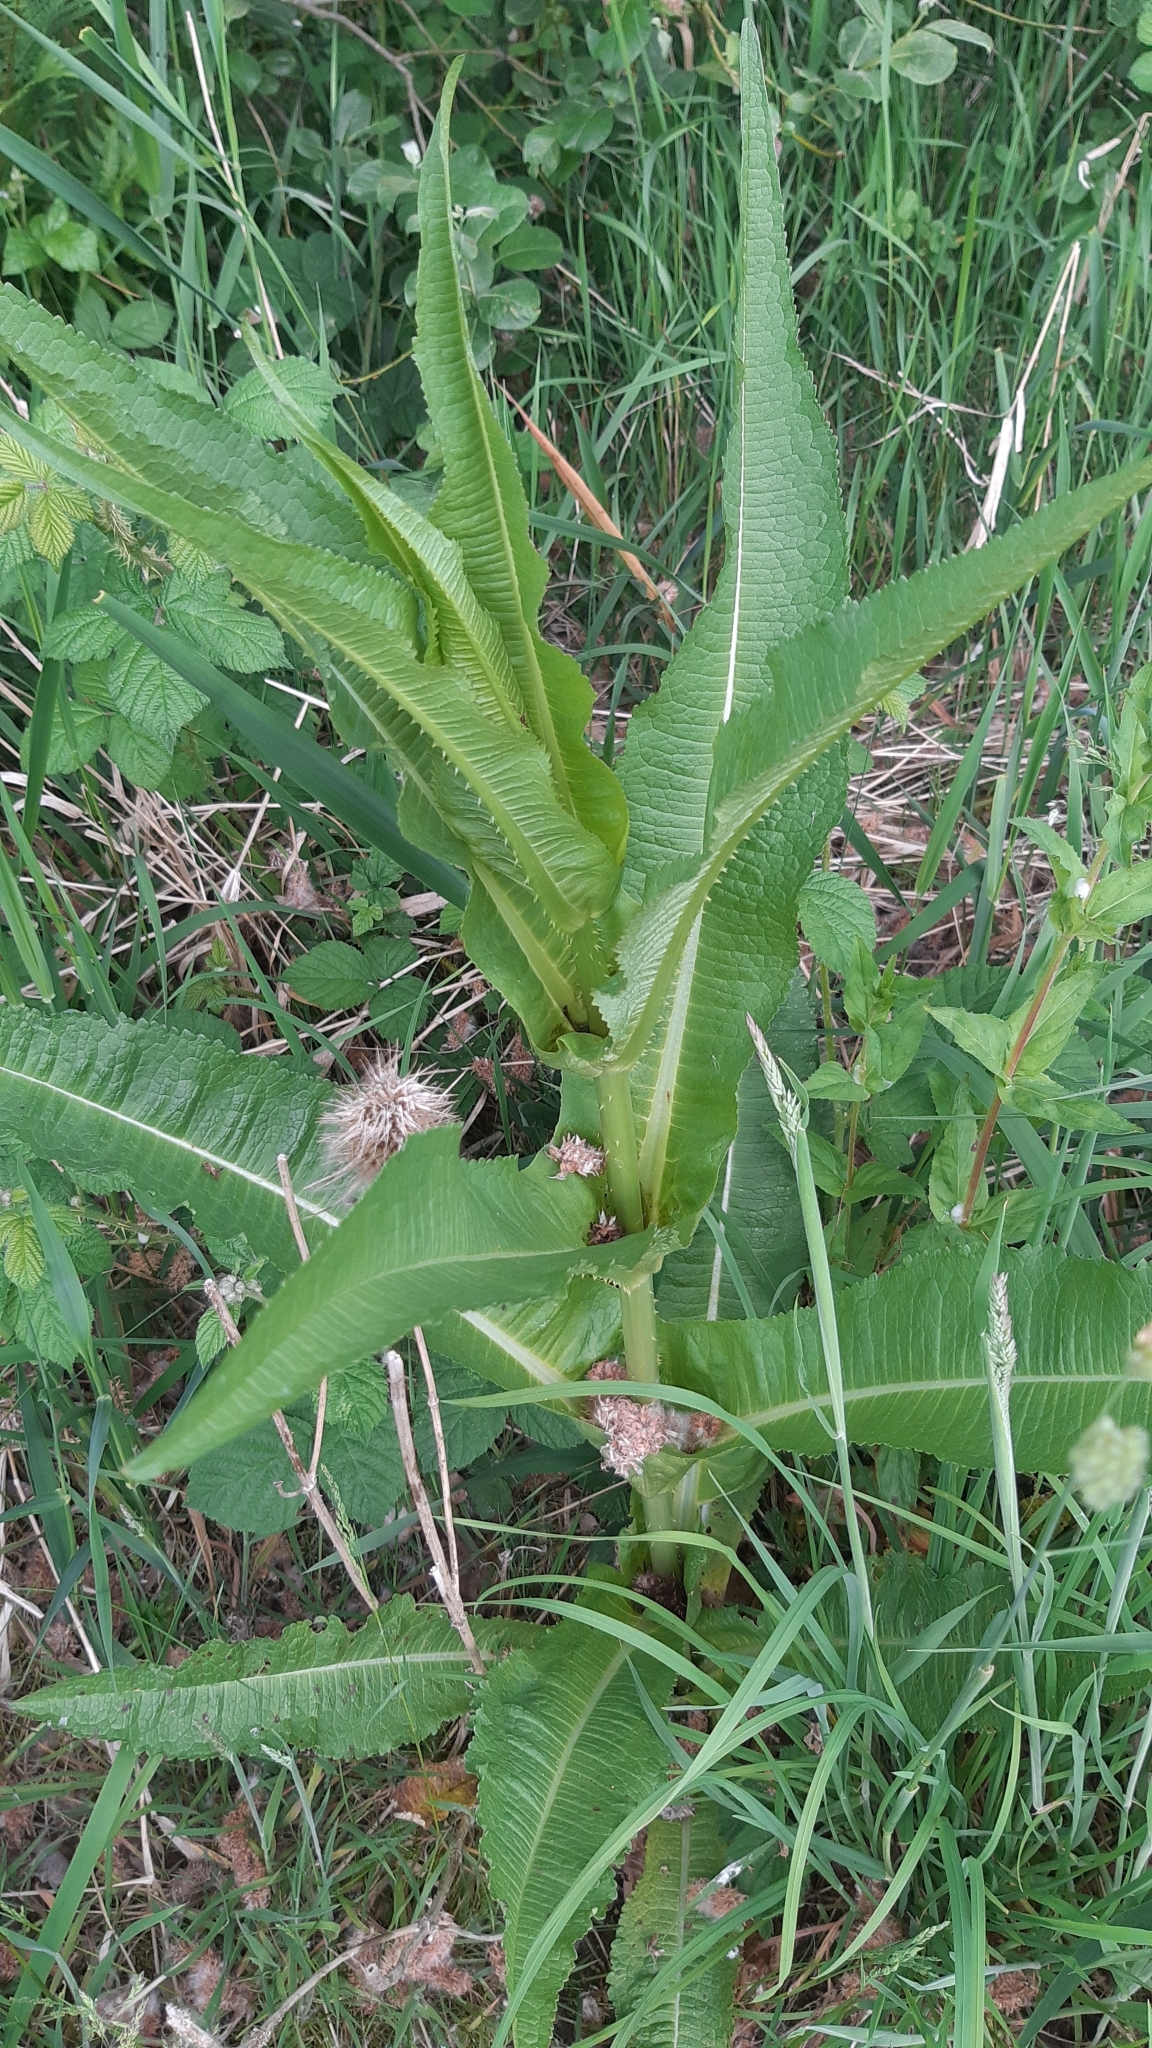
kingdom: Plantae
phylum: Tracheophyta
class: Magnoliopsida
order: Dipsacales
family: Caprifoliaceae
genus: Dipsacus
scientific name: Dipsacus fullonum
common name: Teasel
